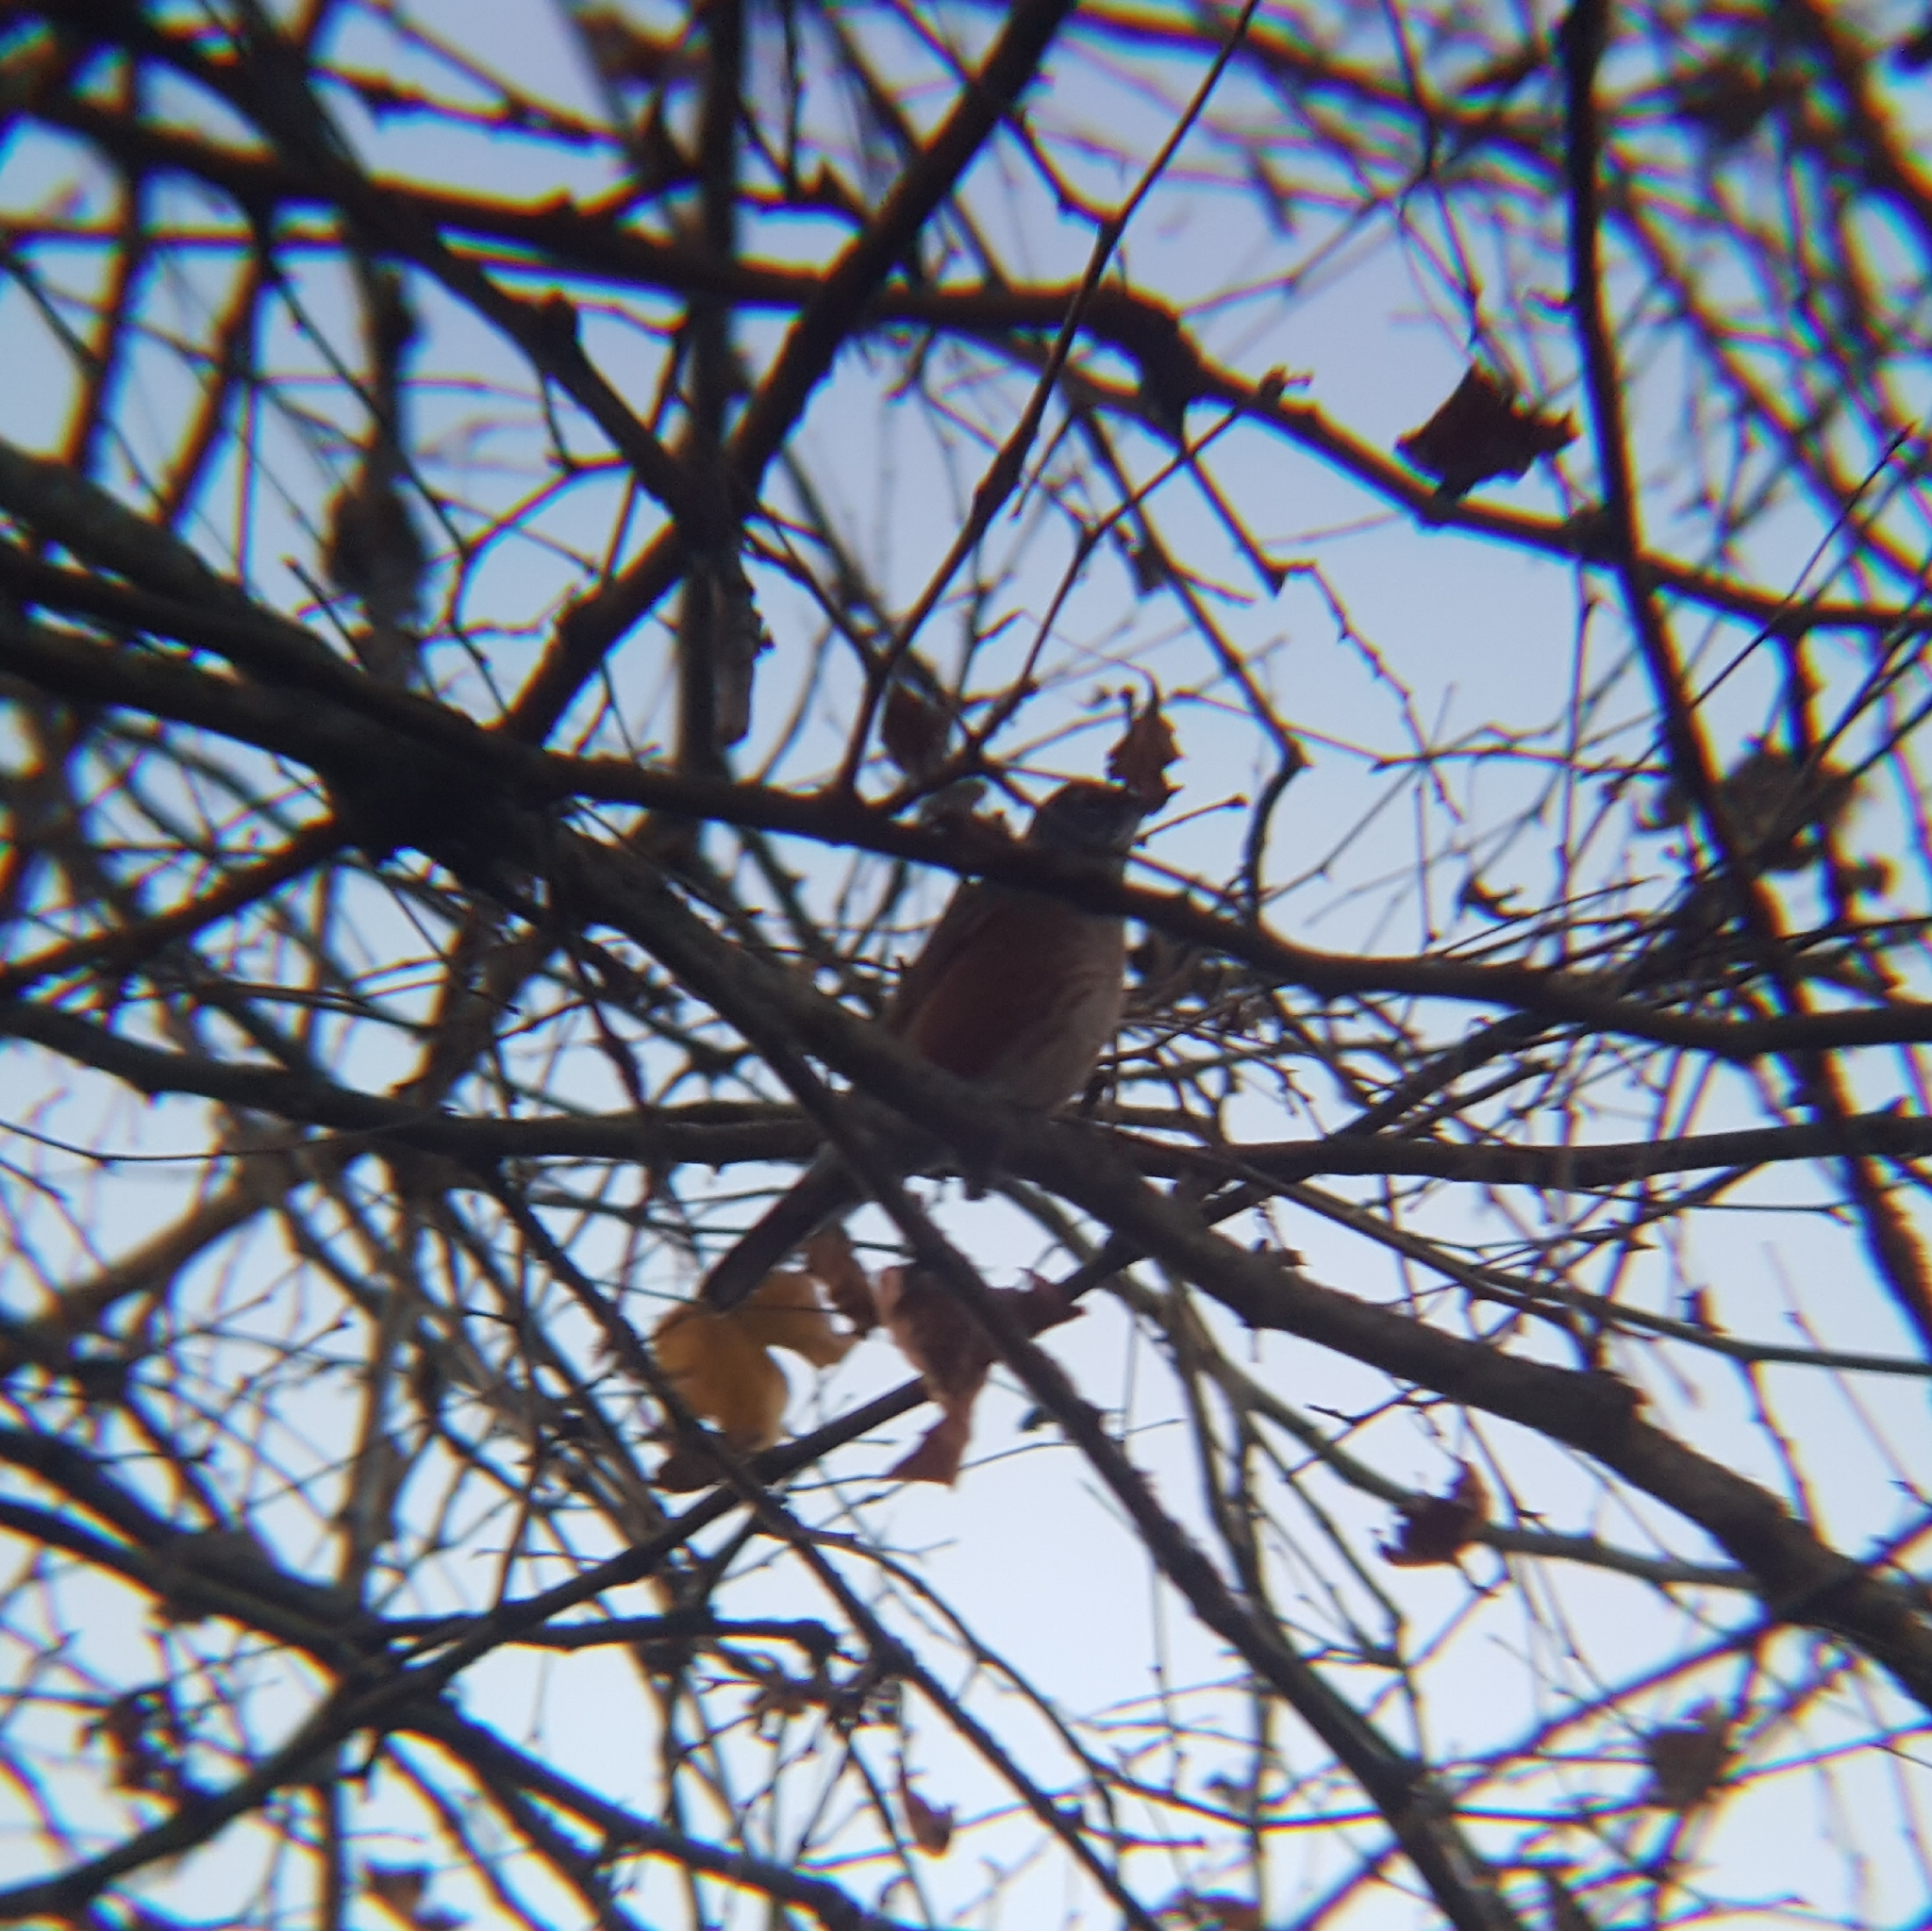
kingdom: Animalia
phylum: Chordata
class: Aves
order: Passeriformes
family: Turdidae
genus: Turdus
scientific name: Turdus migratorius
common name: American robin
